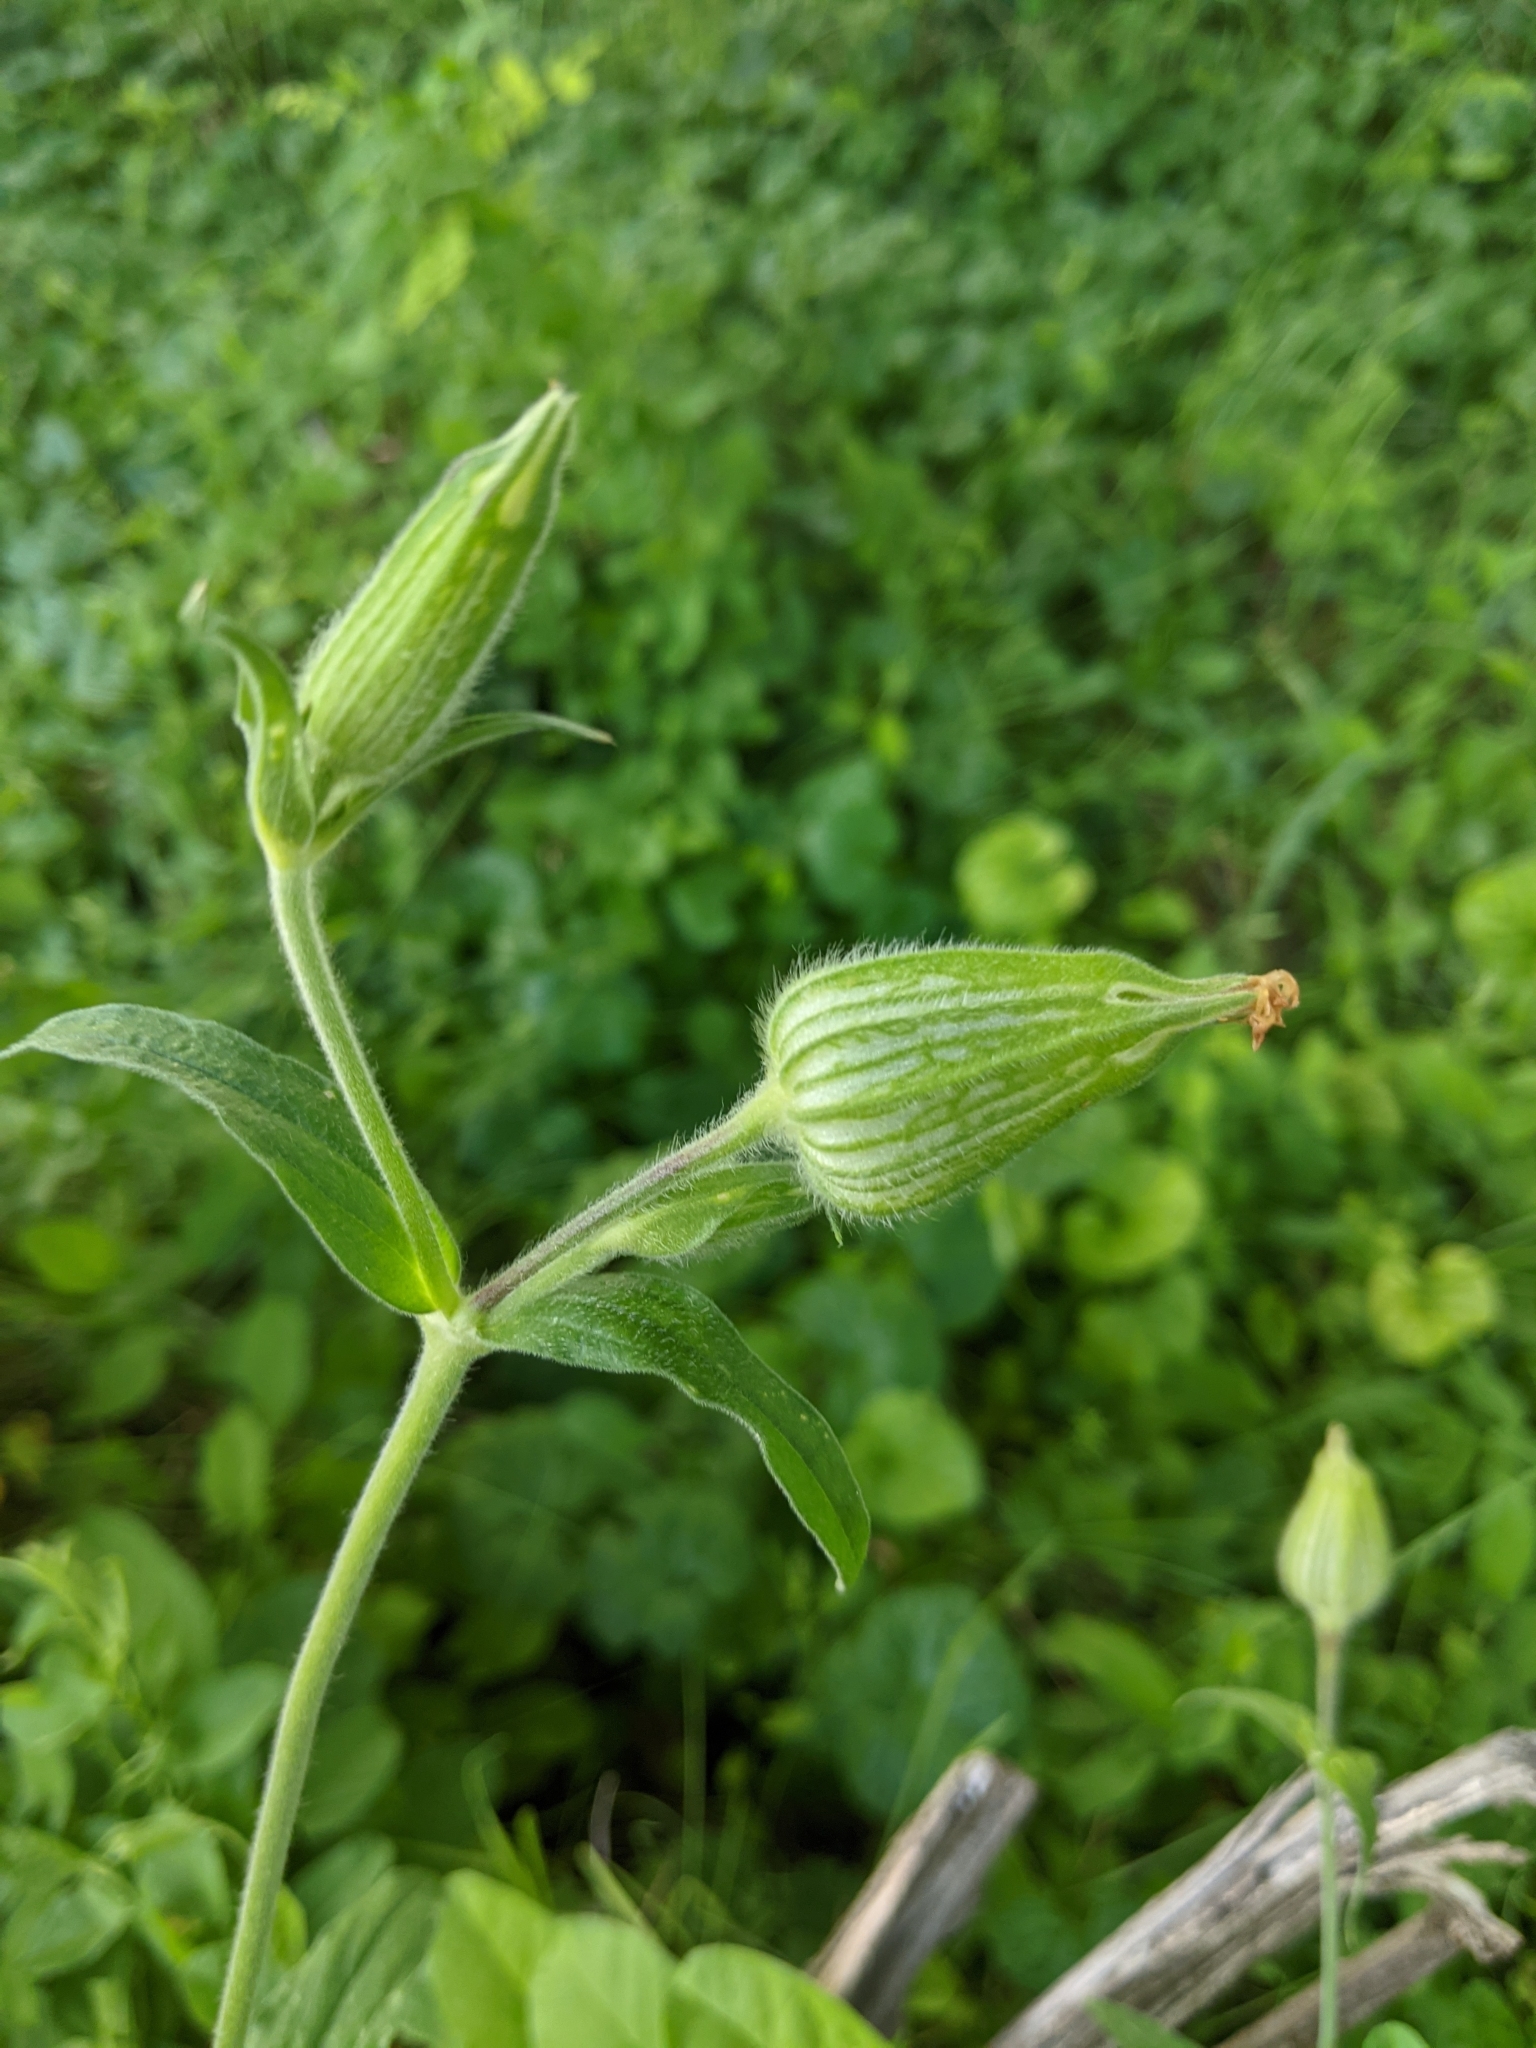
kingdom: Plantae
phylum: Tracheophyta
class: Magnoliopsida
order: Caryophyllales
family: Caryophyllaceae
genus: Silene
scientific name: Silene latifolia
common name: White campion
